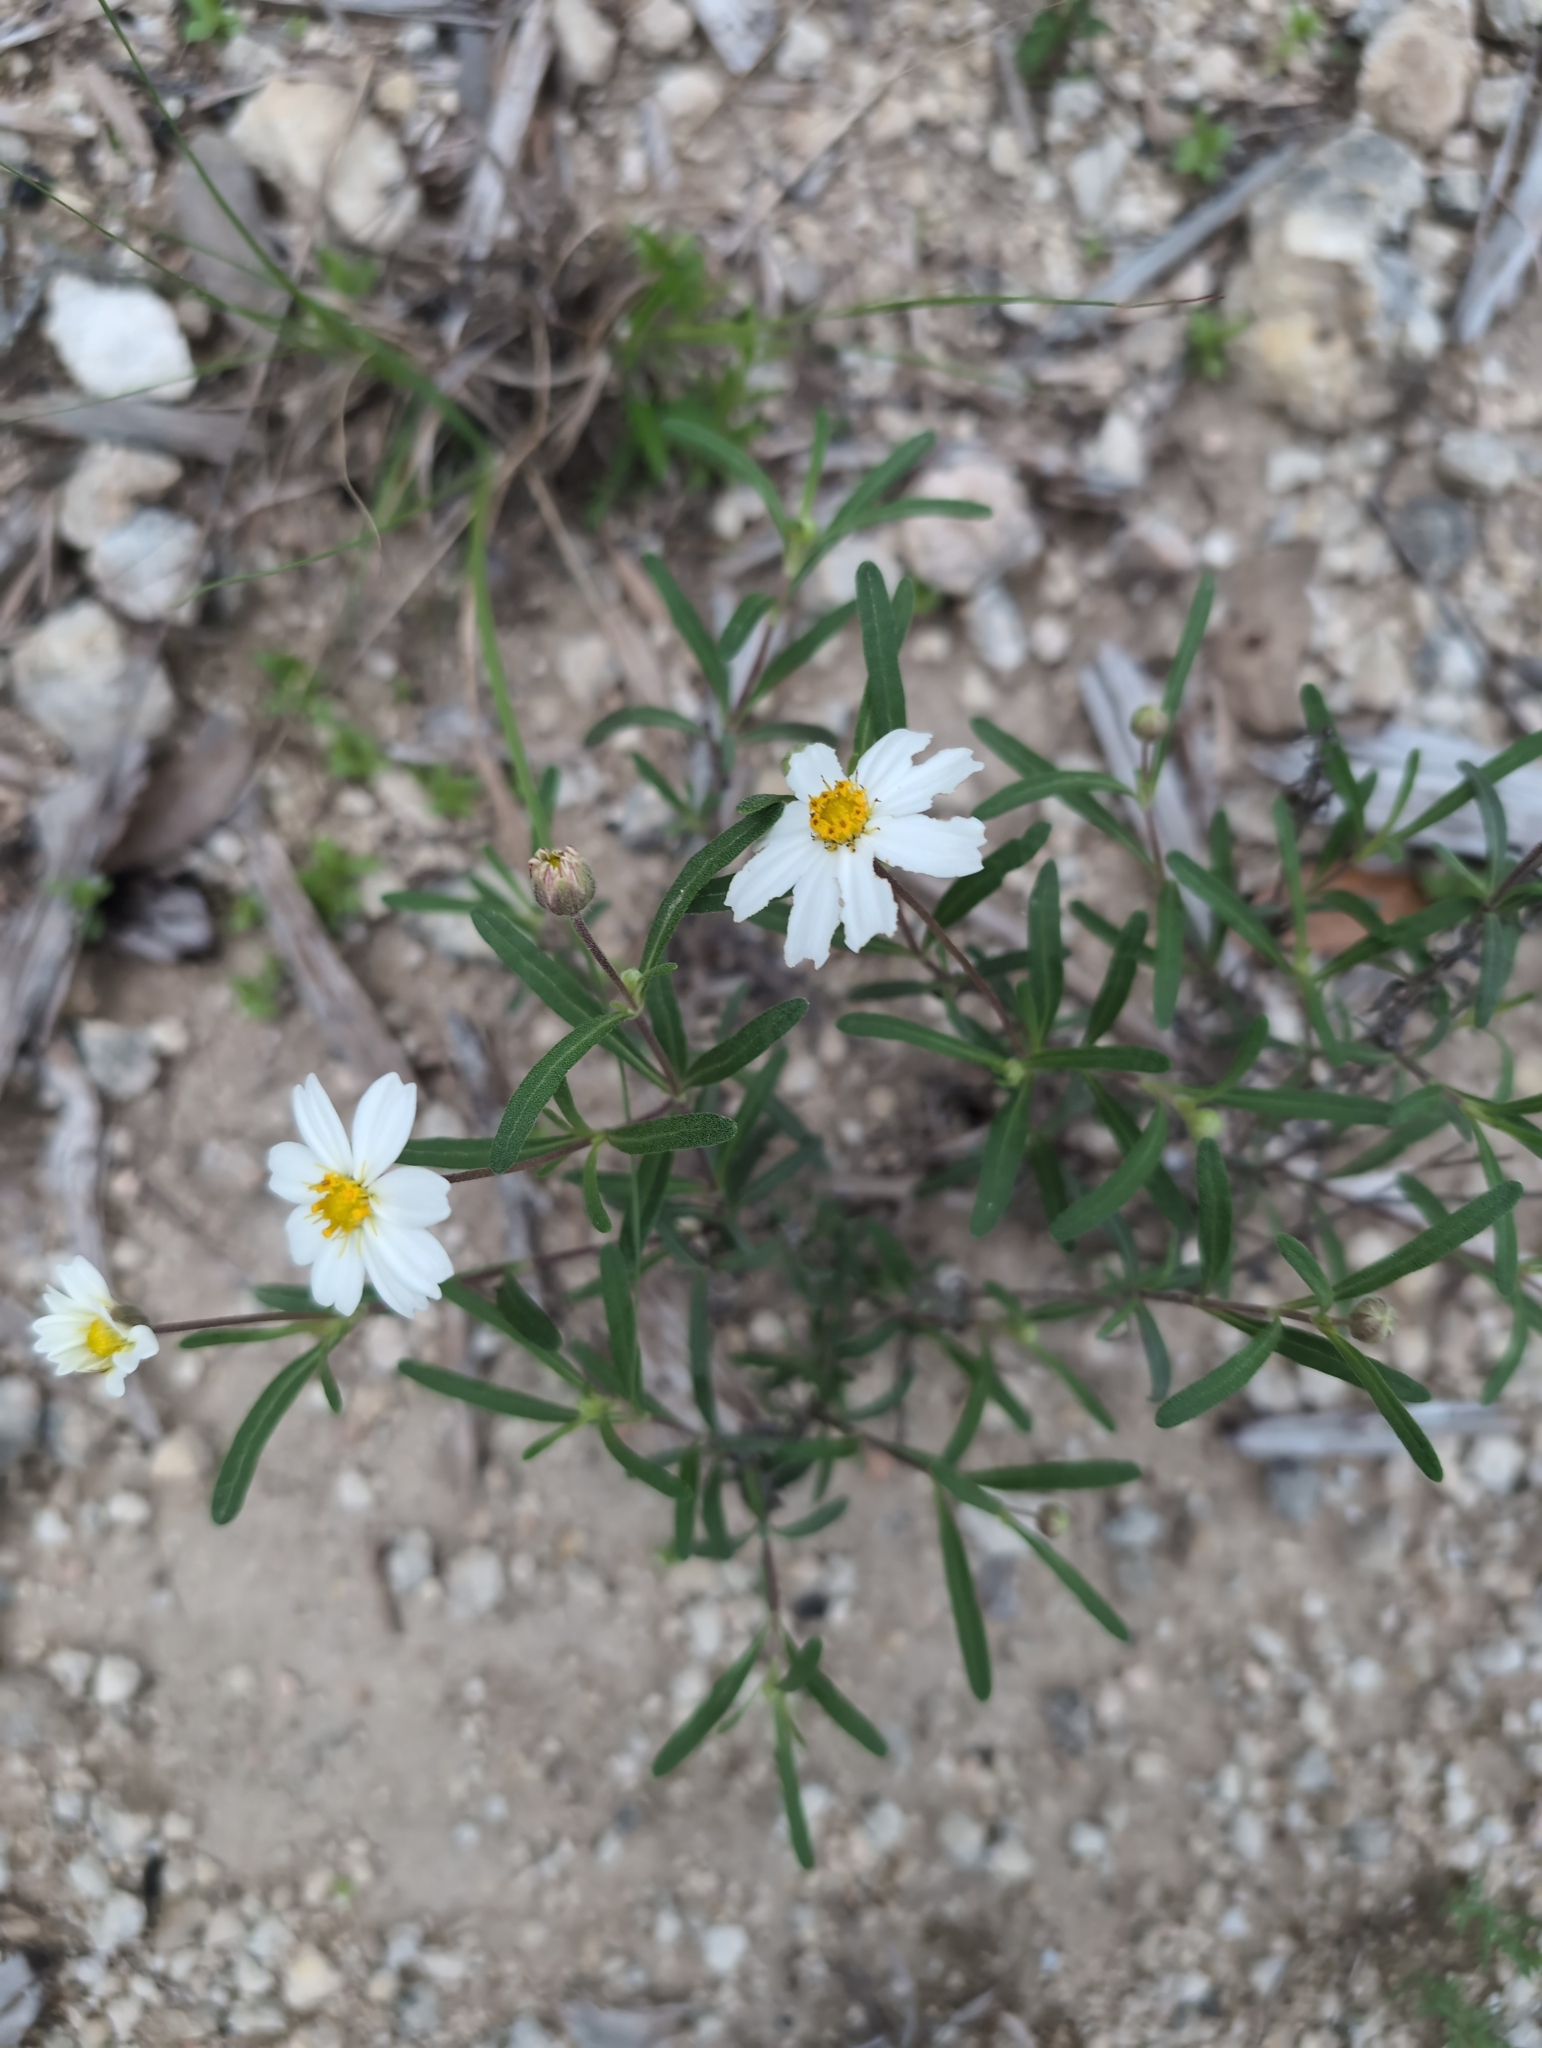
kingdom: Plantae
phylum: Tracheophyta
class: Magnoliopsida
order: Asterales
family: Asteraceae
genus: Melampodium
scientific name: Melampodium leucanthum
